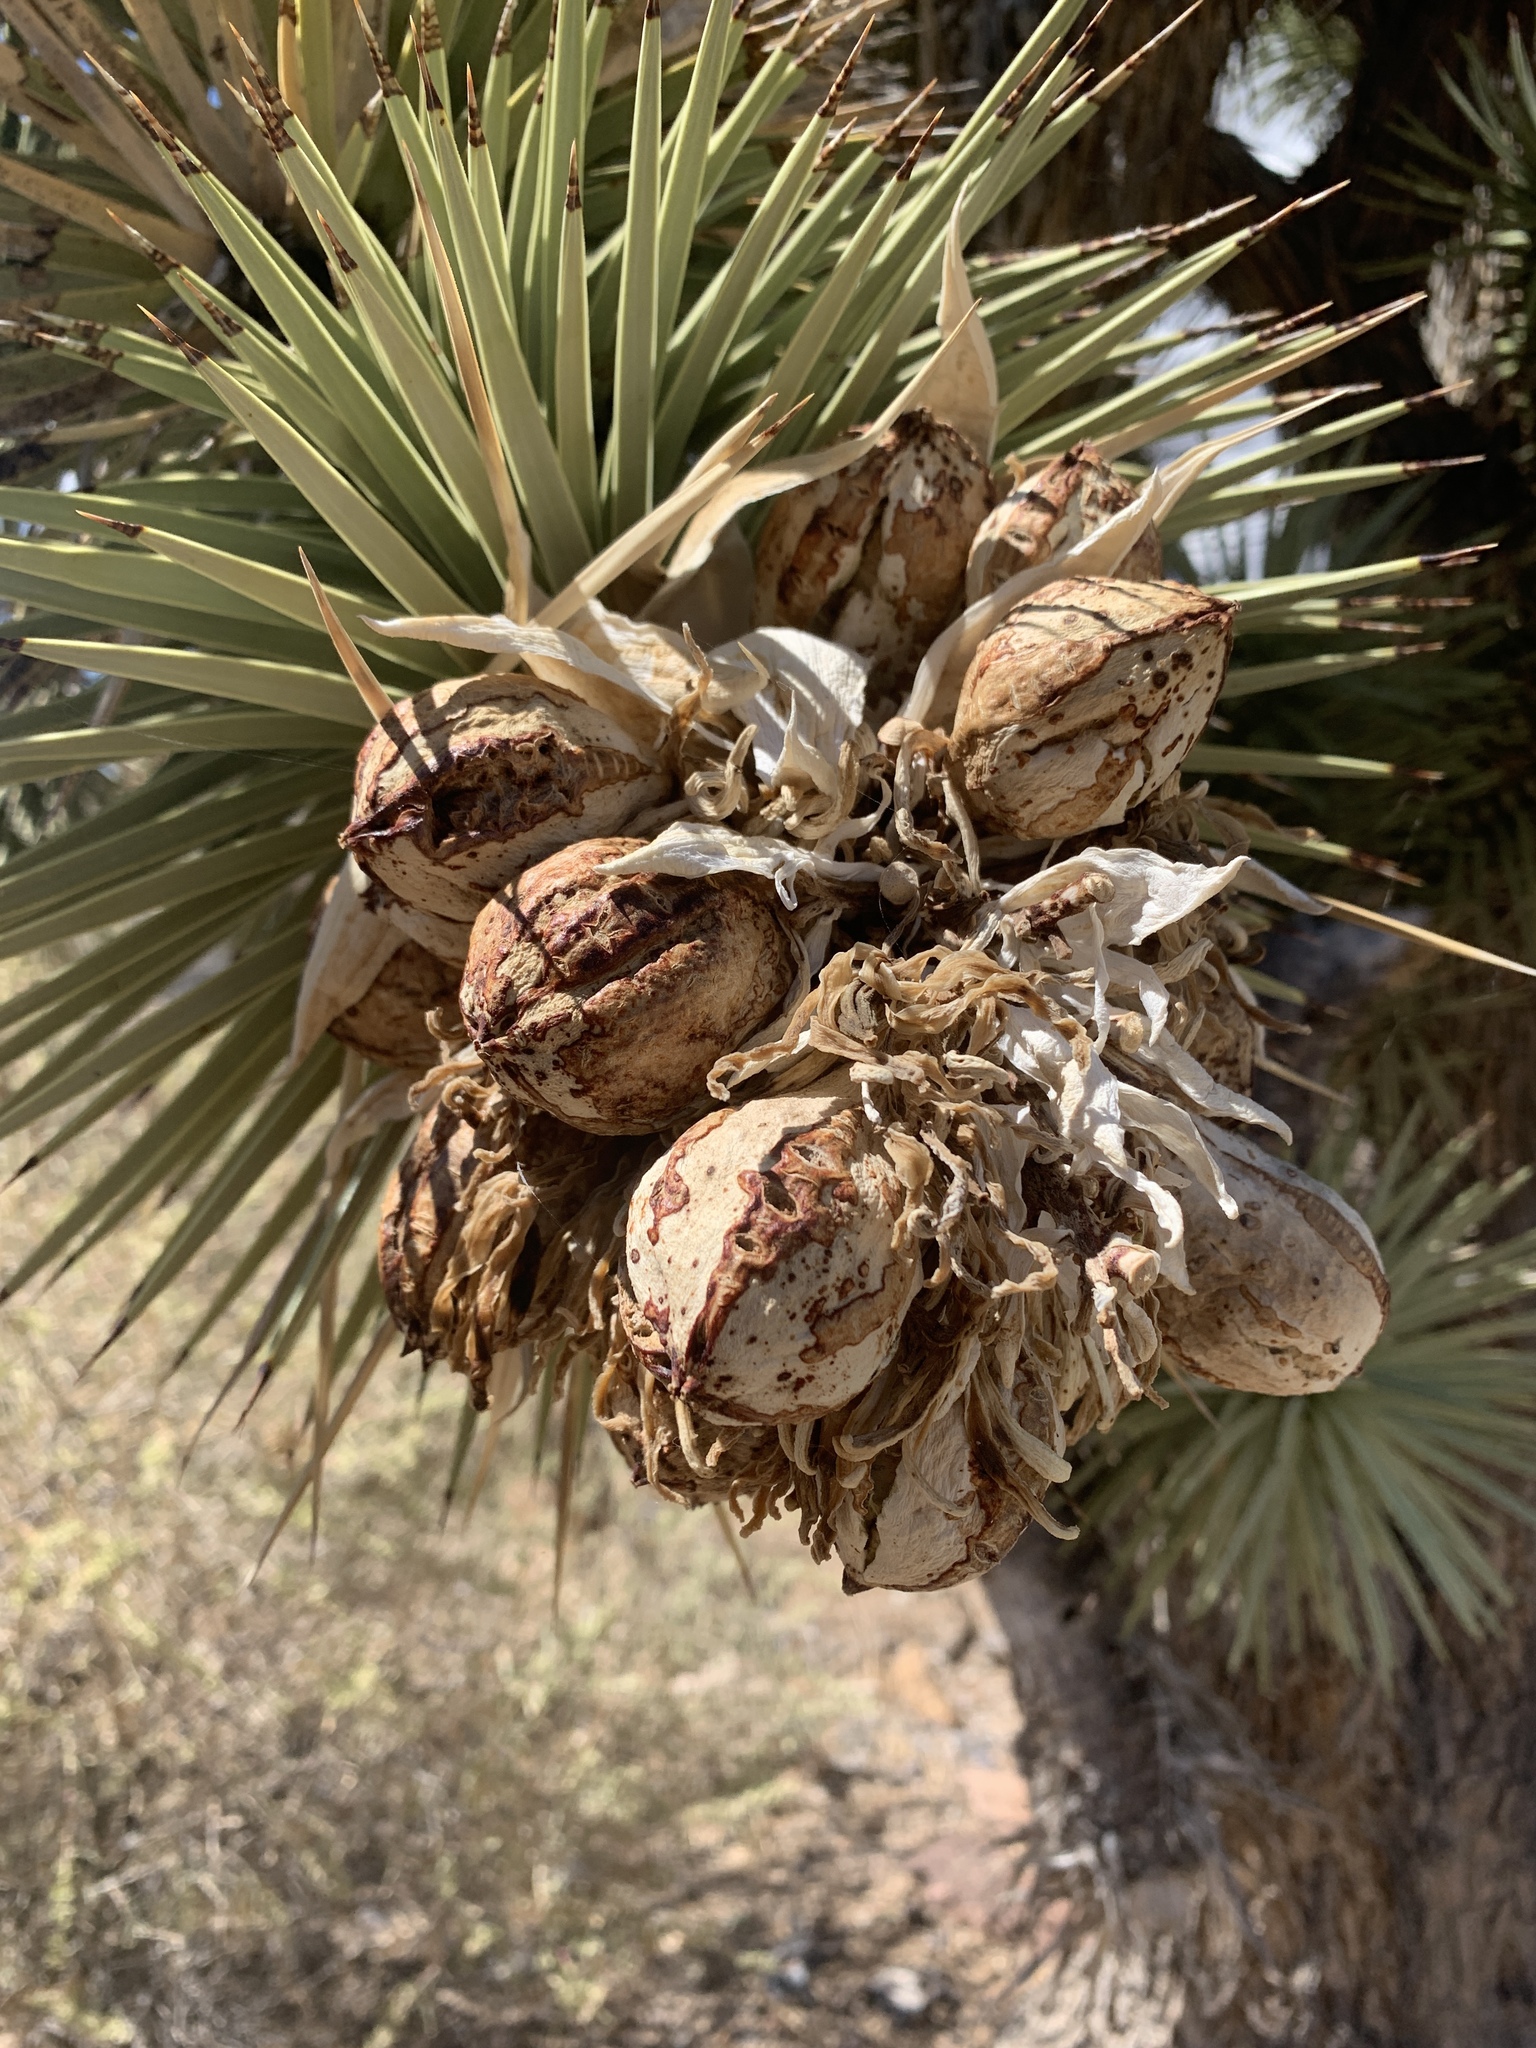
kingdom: Plantae
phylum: Tracheophyta
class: Liliopsida
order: Asparagales
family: Asparagaceae
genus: Yucca
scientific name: Yucca brevifolia
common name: Joshua tree
